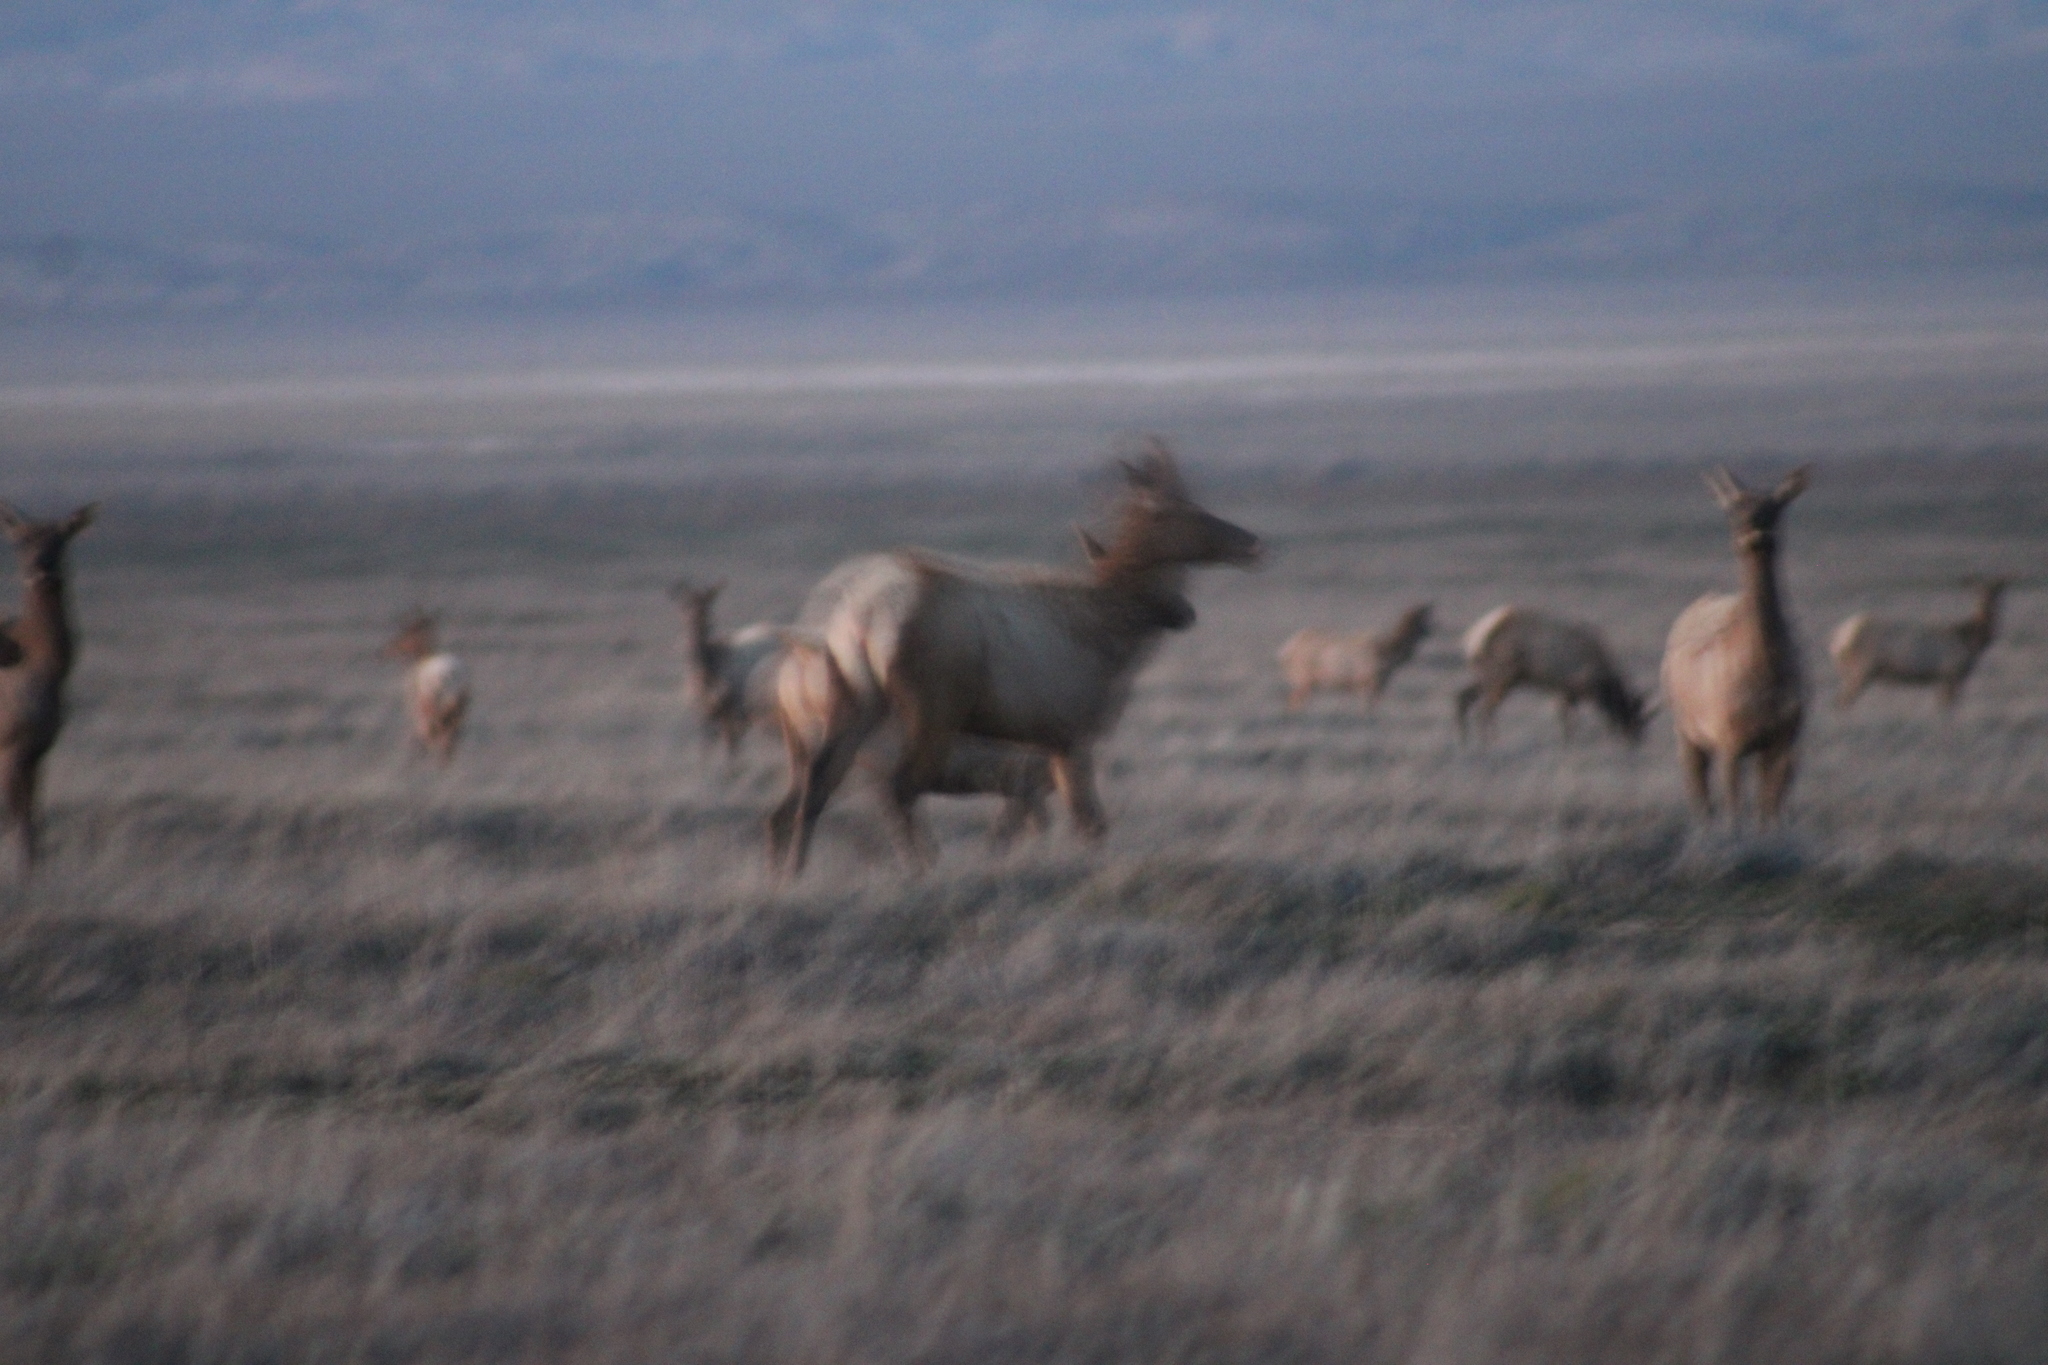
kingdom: Animalia
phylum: Chordata
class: Mammalia
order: Artiodactyla
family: Cervidae
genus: Cervus
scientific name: Cervus elaphus
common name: Red deer
